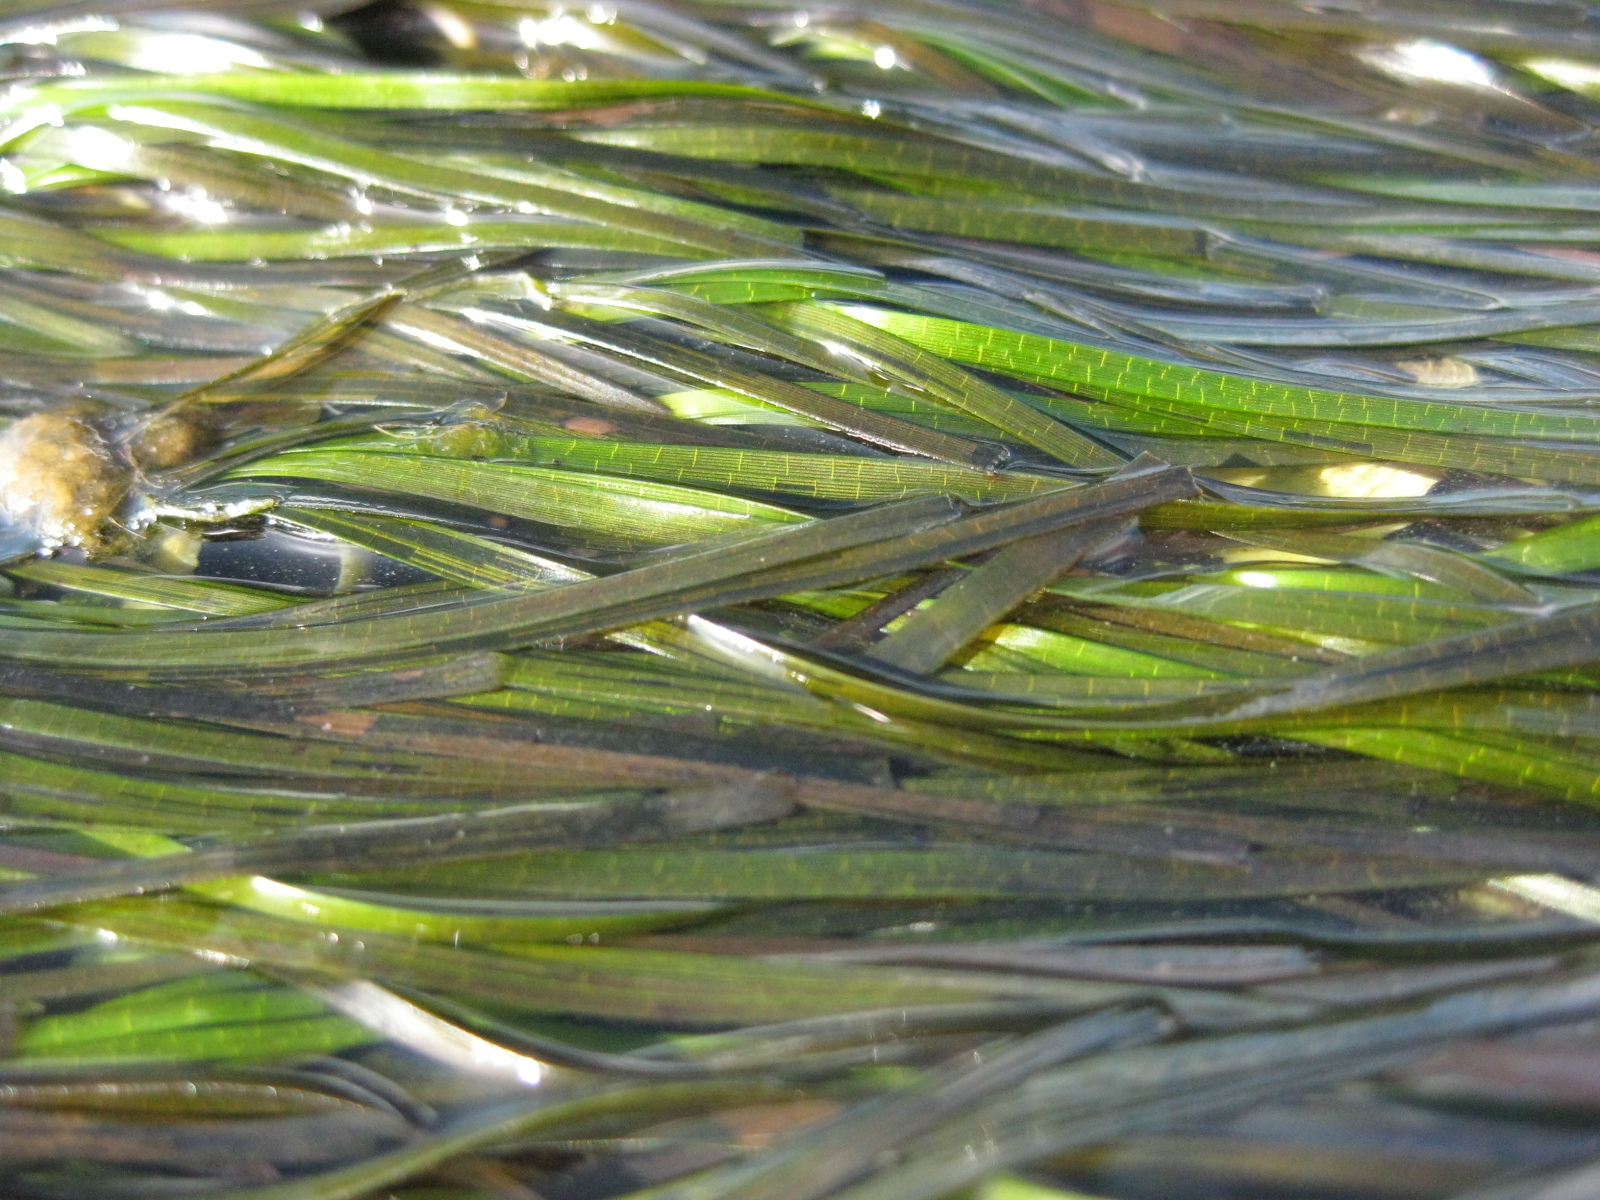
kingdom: Plantae
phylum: Tracheophyta
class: Liliopsida
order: Alismatales
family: Zosteraceae
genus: Zostera
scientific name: Zostera novazelandica
